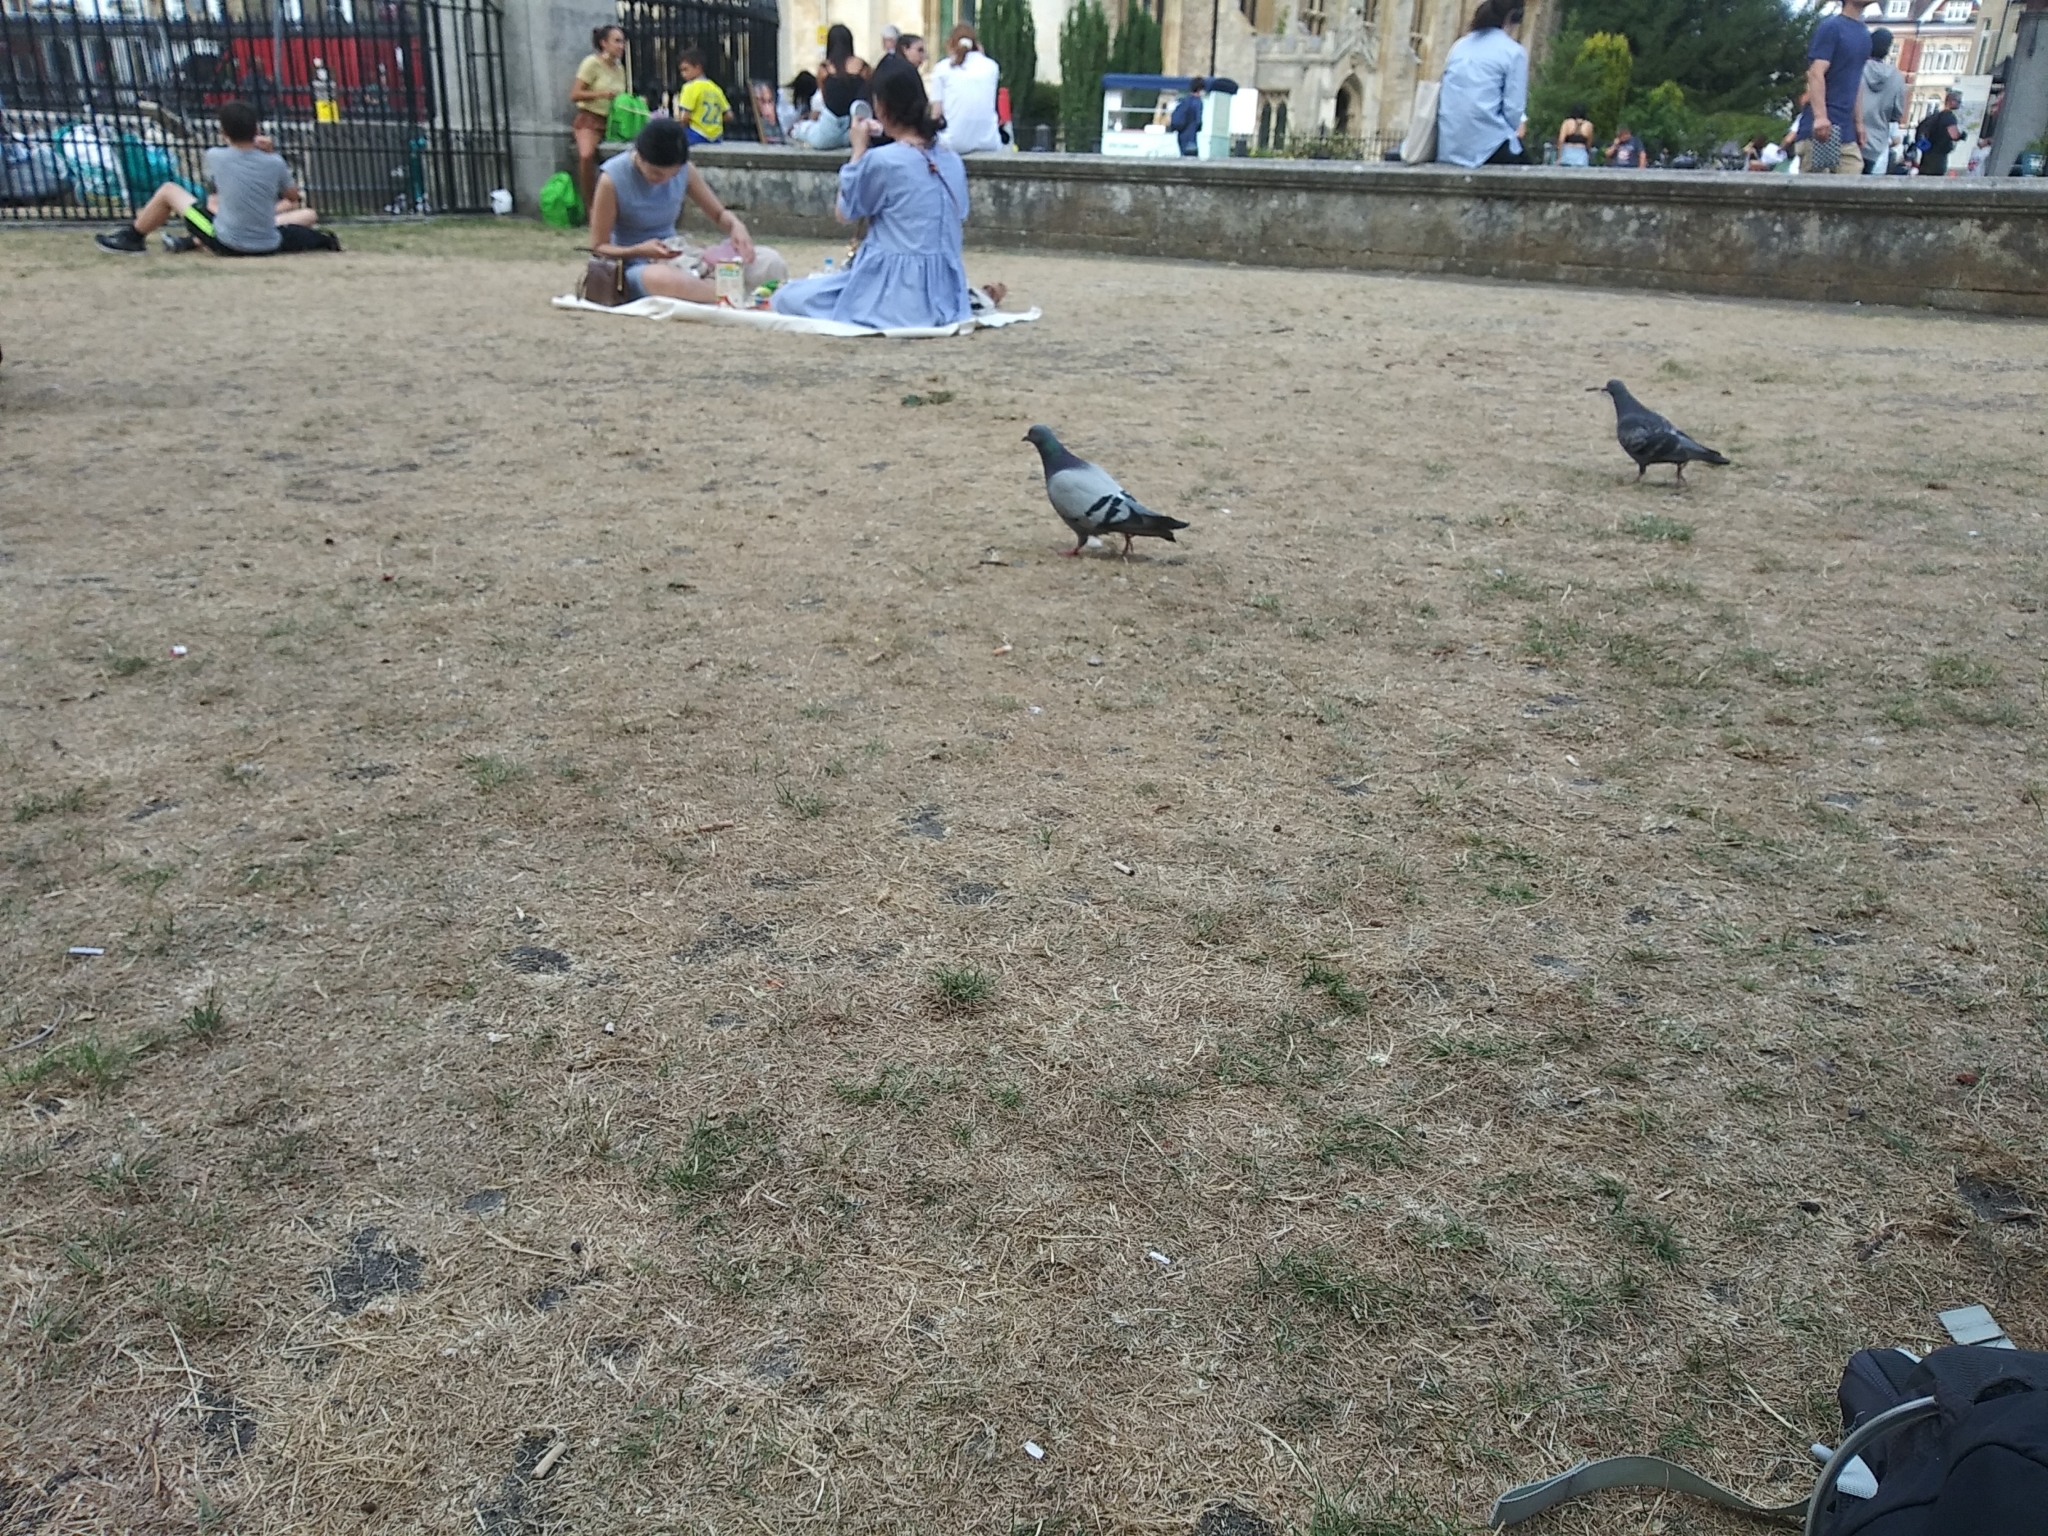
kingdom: Animalia
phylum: Chordata
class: Aves
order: Columbiformes
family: Columbidae
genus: Columba
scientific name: Columba livia
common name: Rock pigeon
